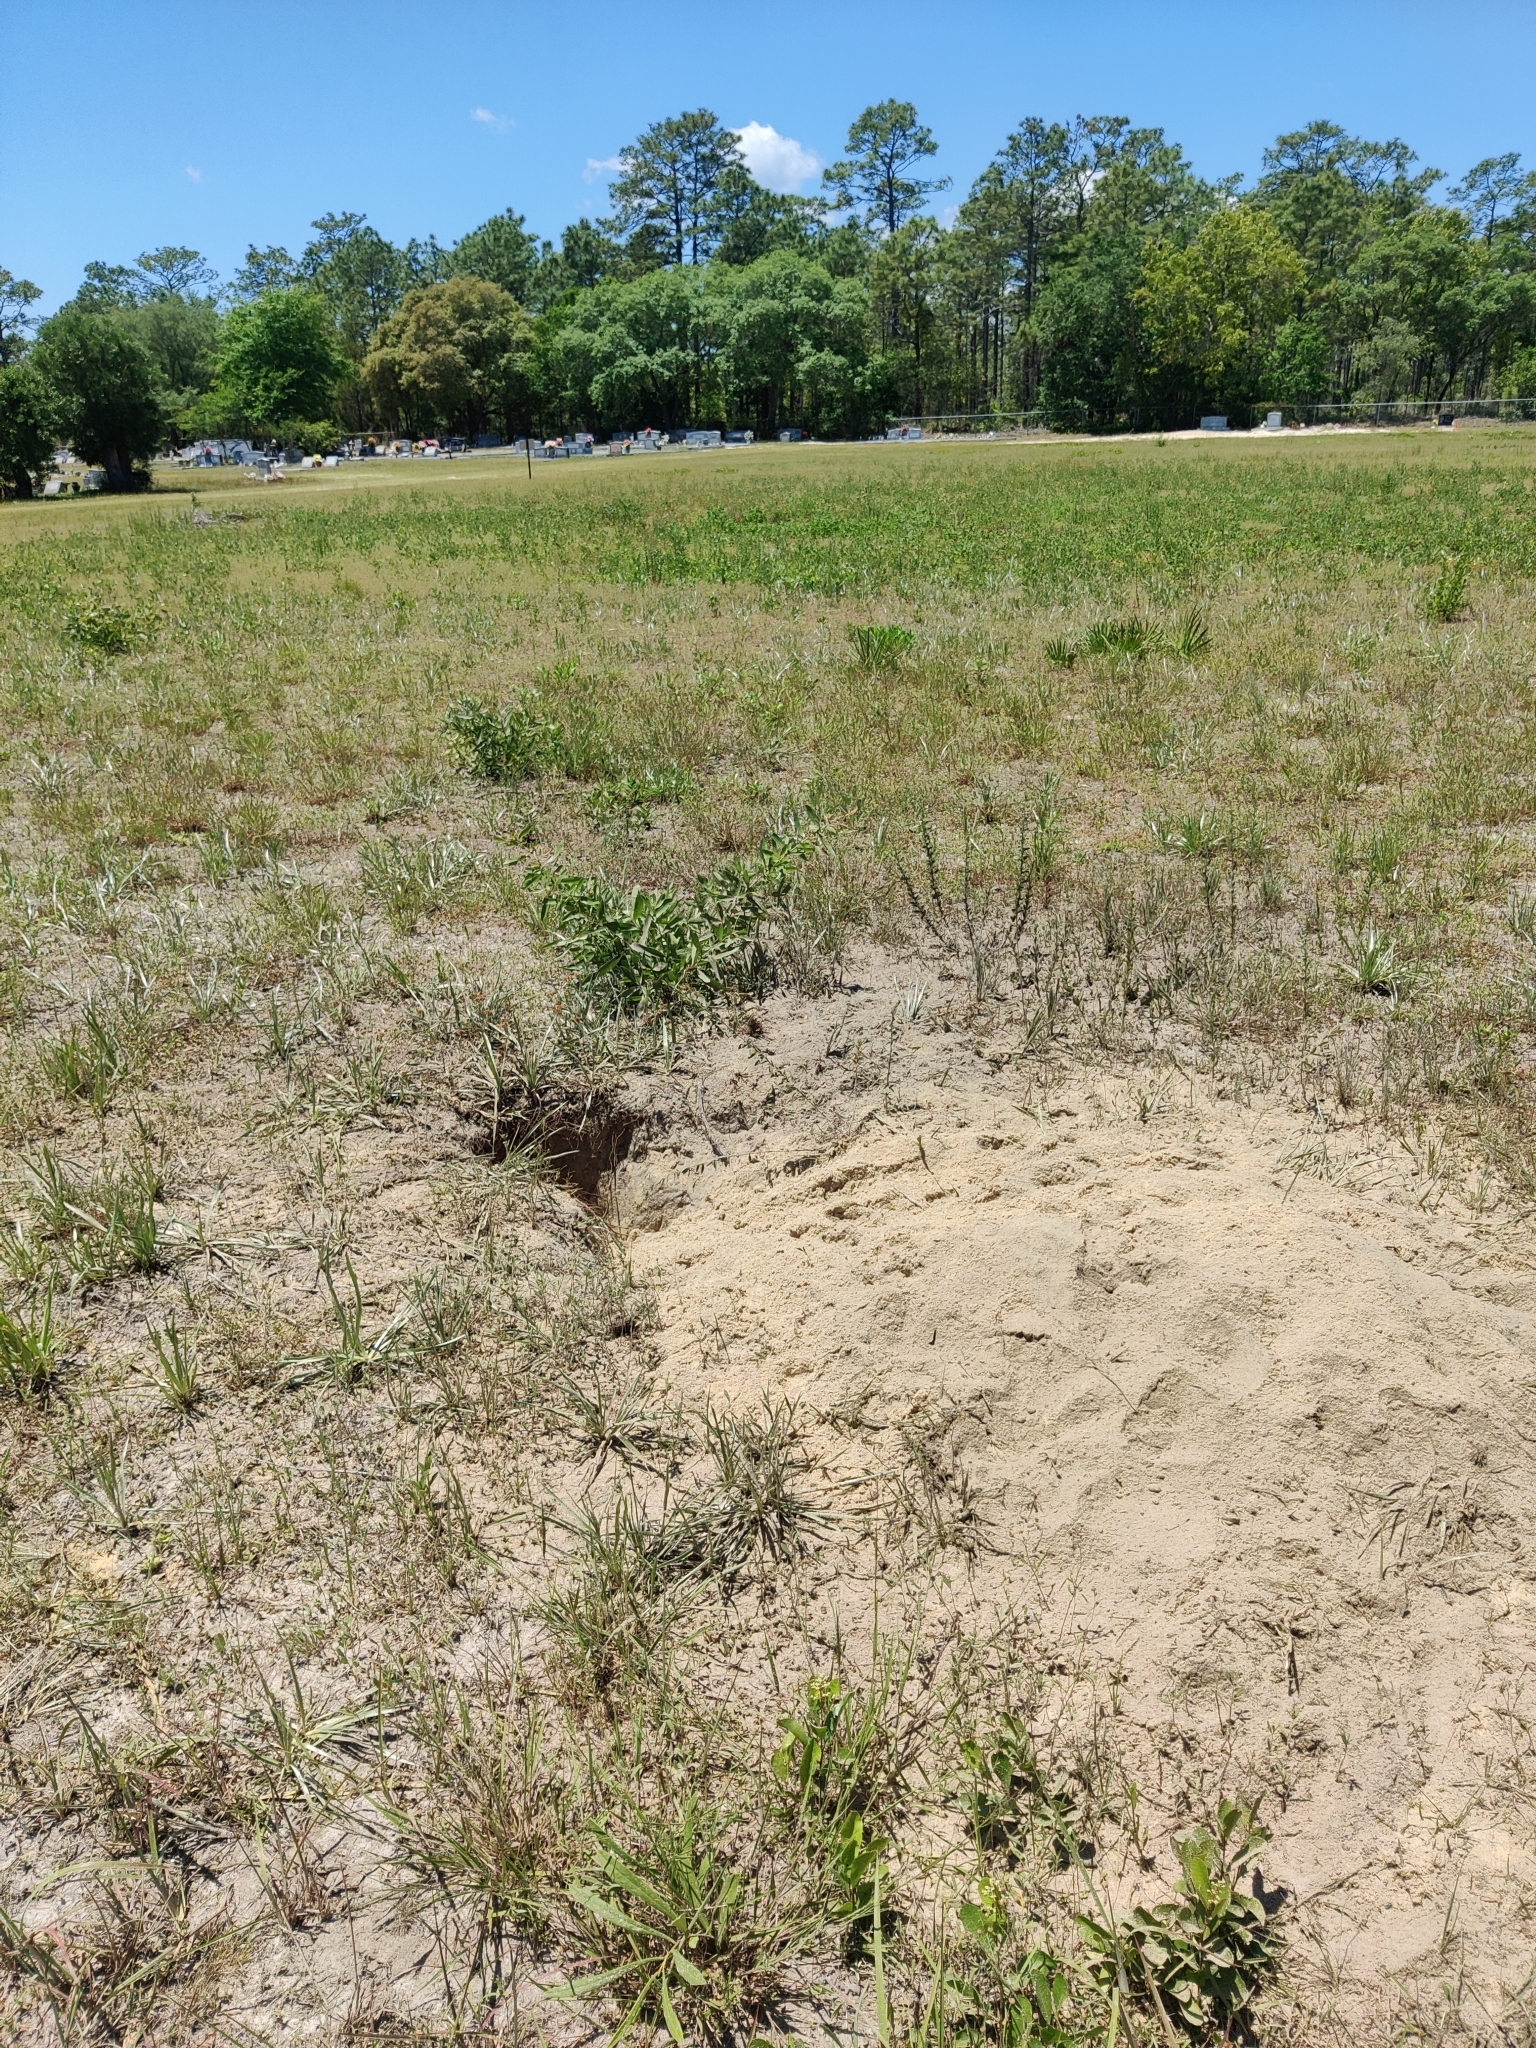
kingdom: Animalia
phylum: Chordata
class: Testudines
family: Testudinidae
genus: Gopherus
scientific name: Gopherus polyphemus
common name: Florida gopher tortoise
